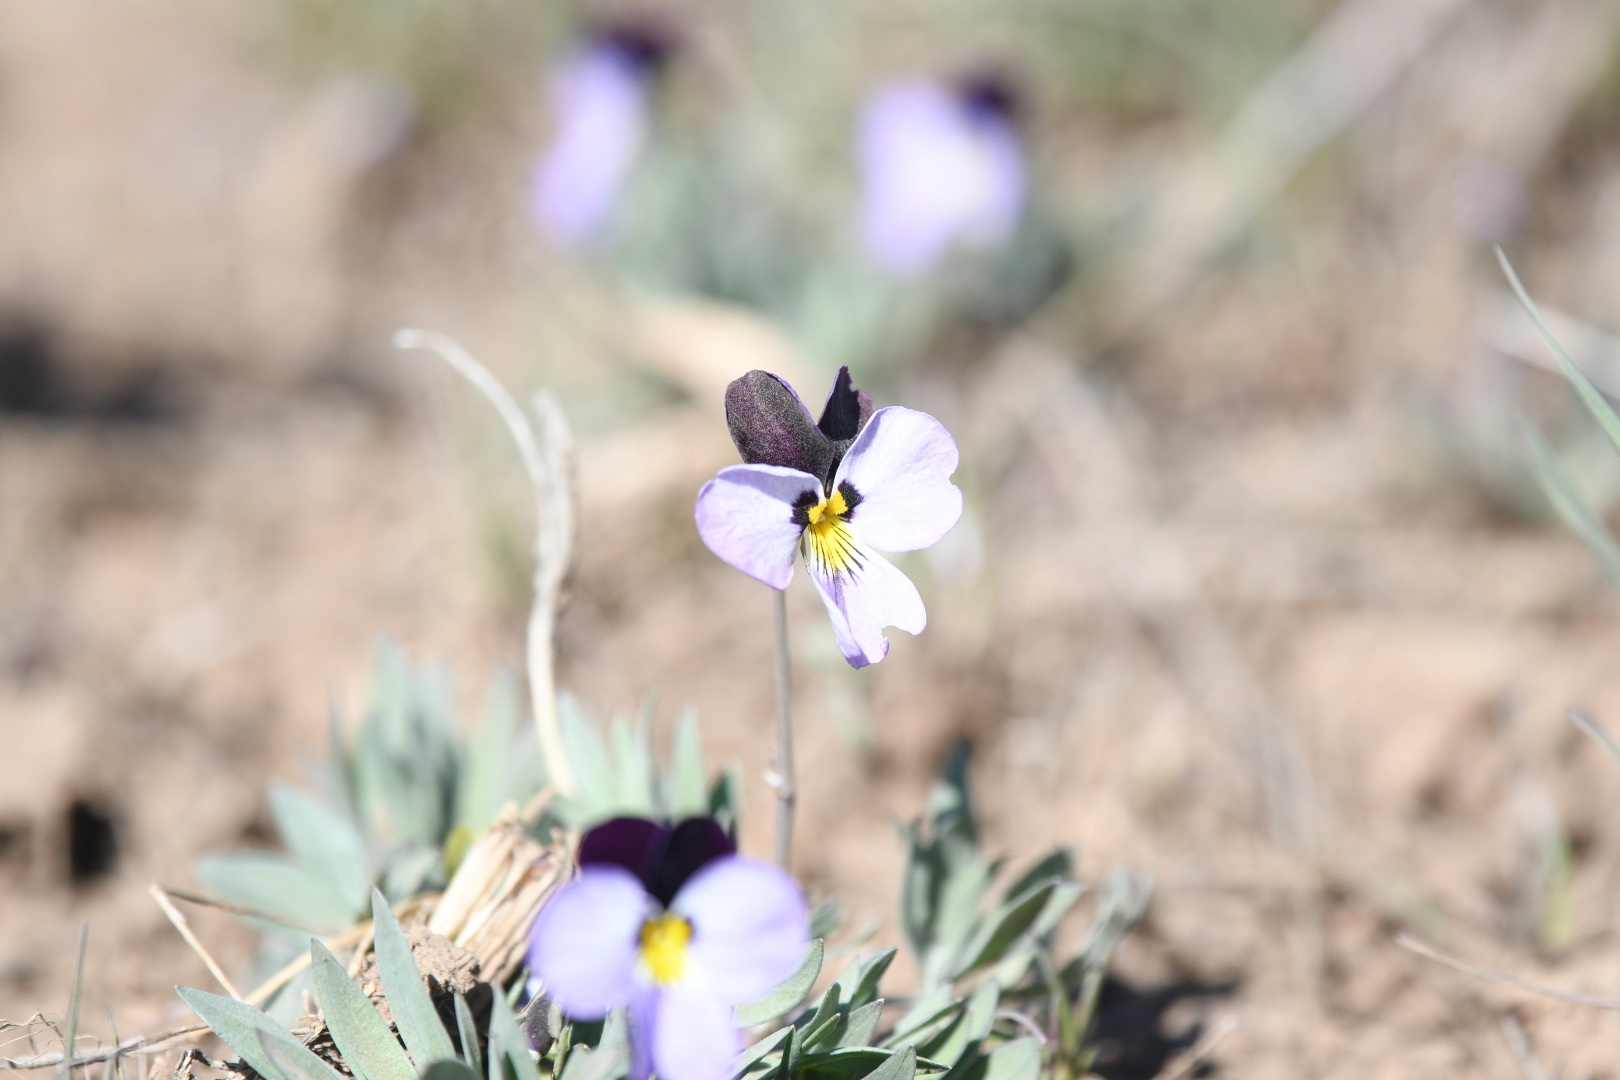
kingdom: Plantae
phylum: Tracheophyta
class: Magnoliopsida
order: Malpighiales
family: Violaceae
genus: Viola
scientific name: Viola trinervata
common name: Sagebrush violet
